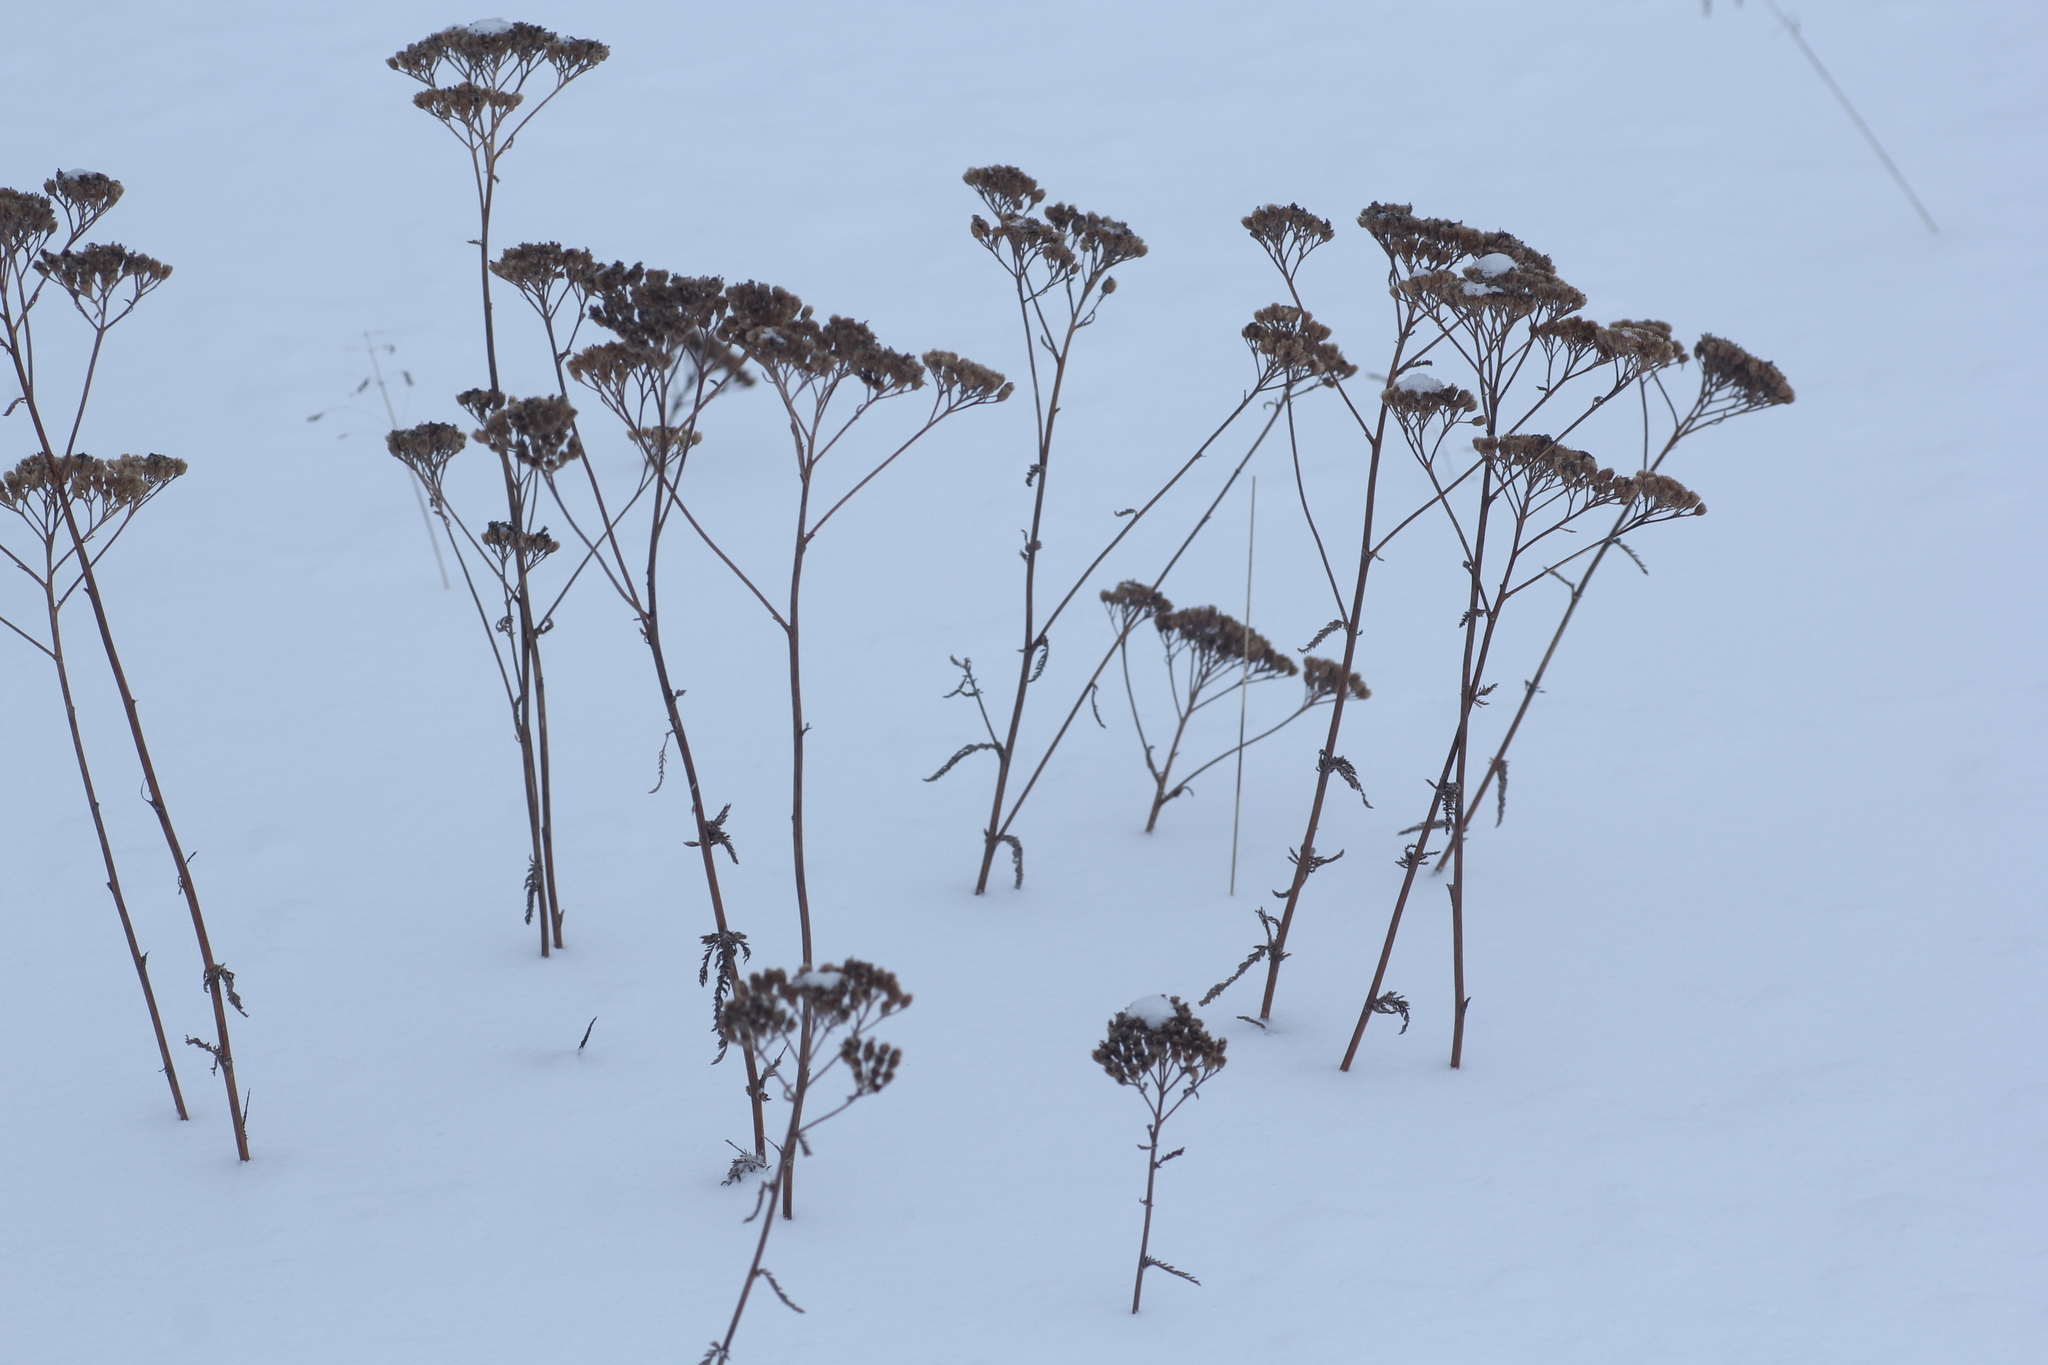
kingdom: Plantae
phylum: Tracheophyta
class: Magnoliopsida
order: Asterales
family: Asteraceae
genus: Achillea
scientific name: Achillea asiatica
